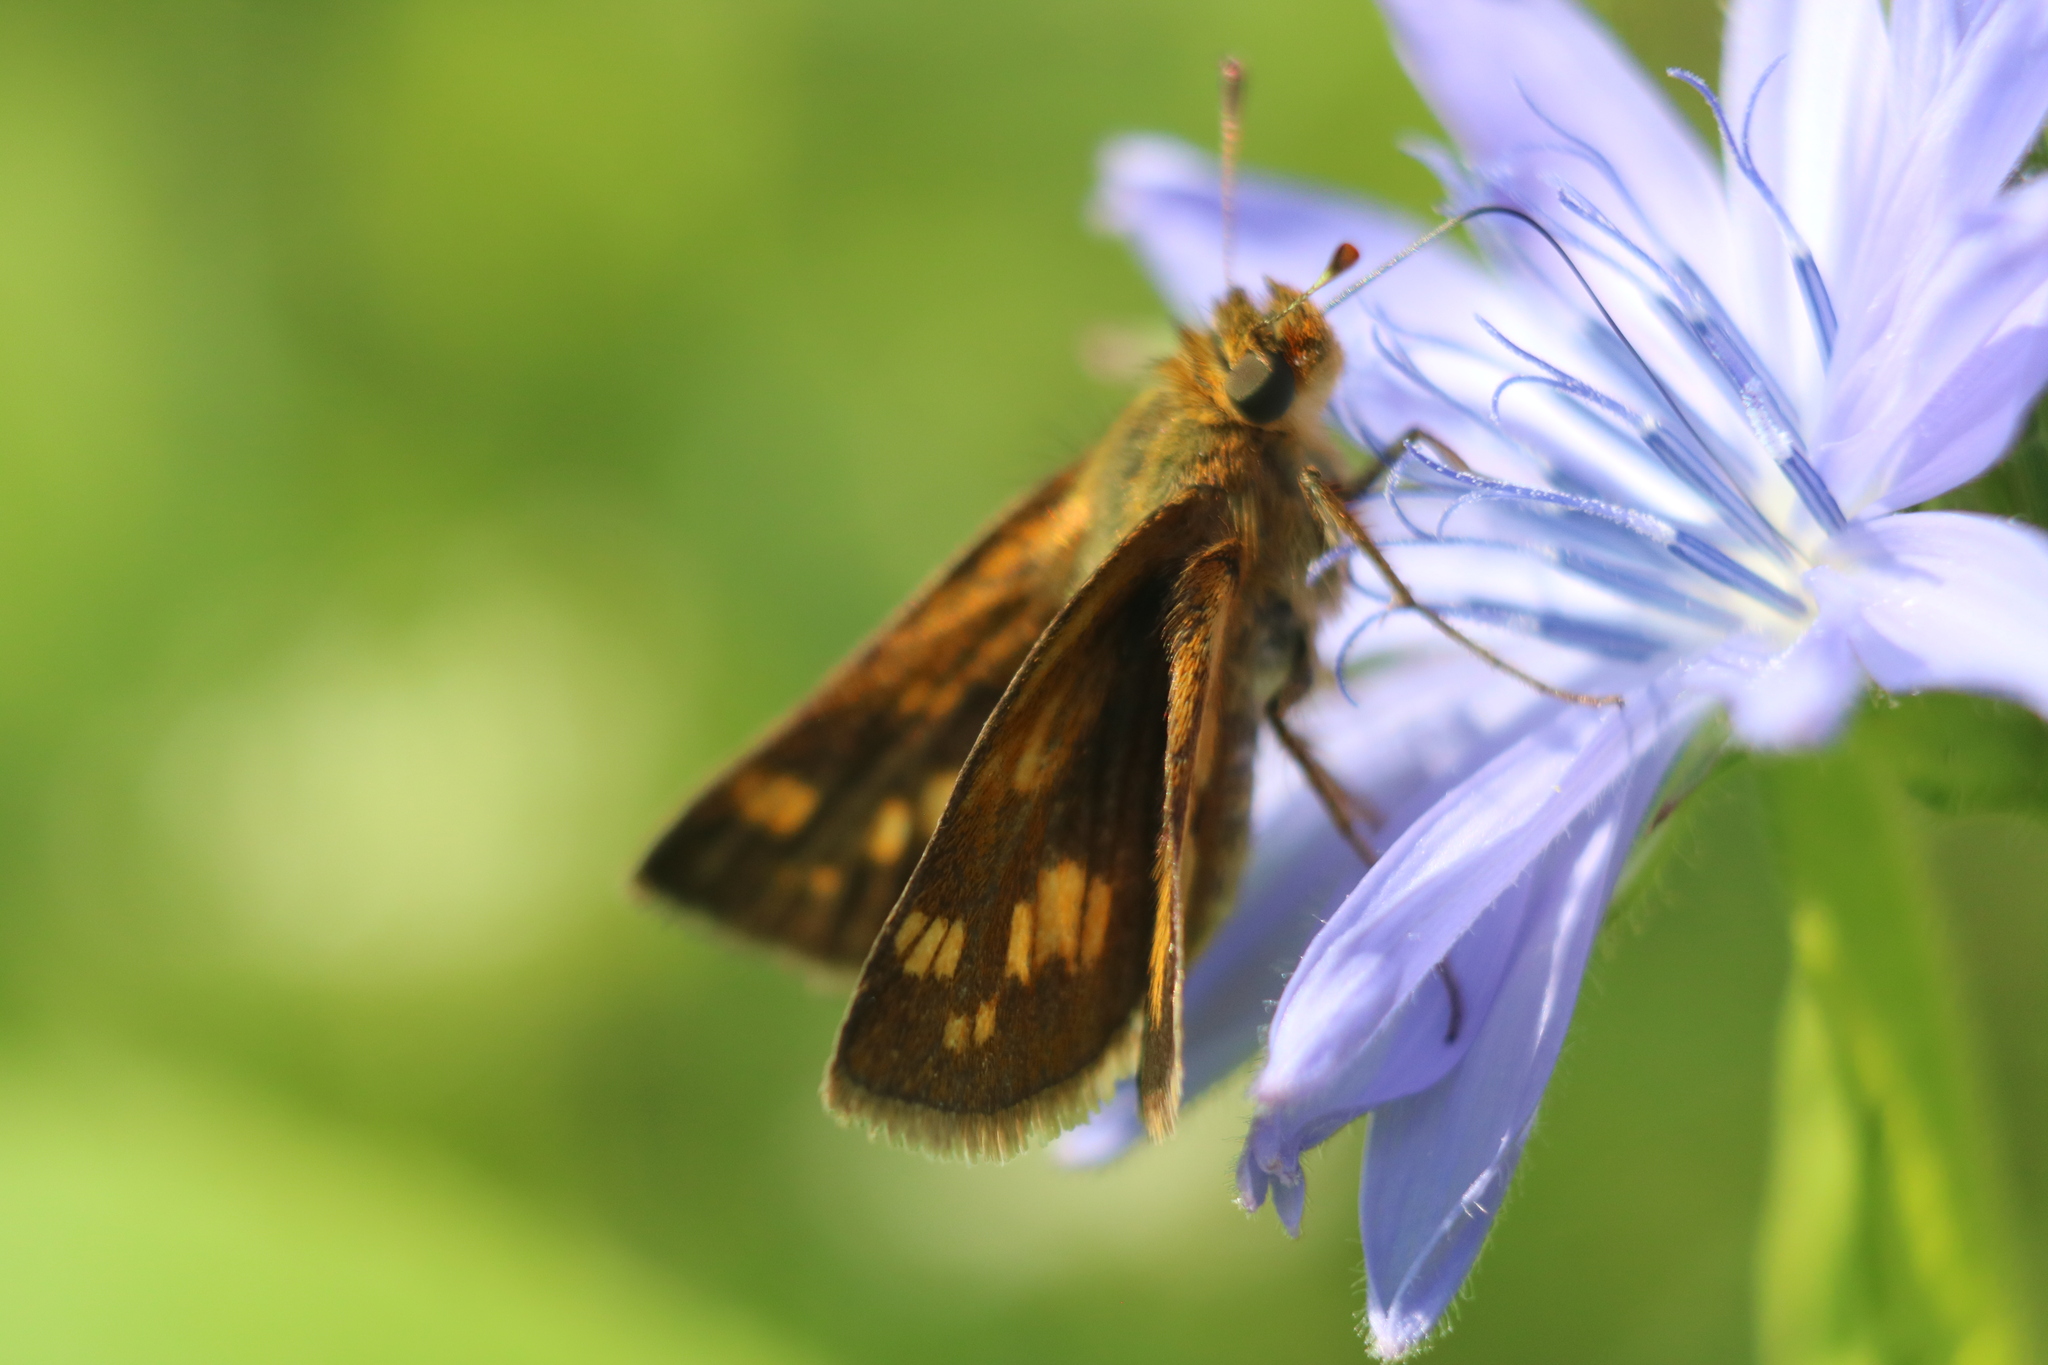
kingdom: Animalia
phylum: Arthropoda
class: Insecta
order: Lepidoptera
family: Hesperiidae
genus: Polites
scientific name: Polites coras
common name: Peck's skipper
